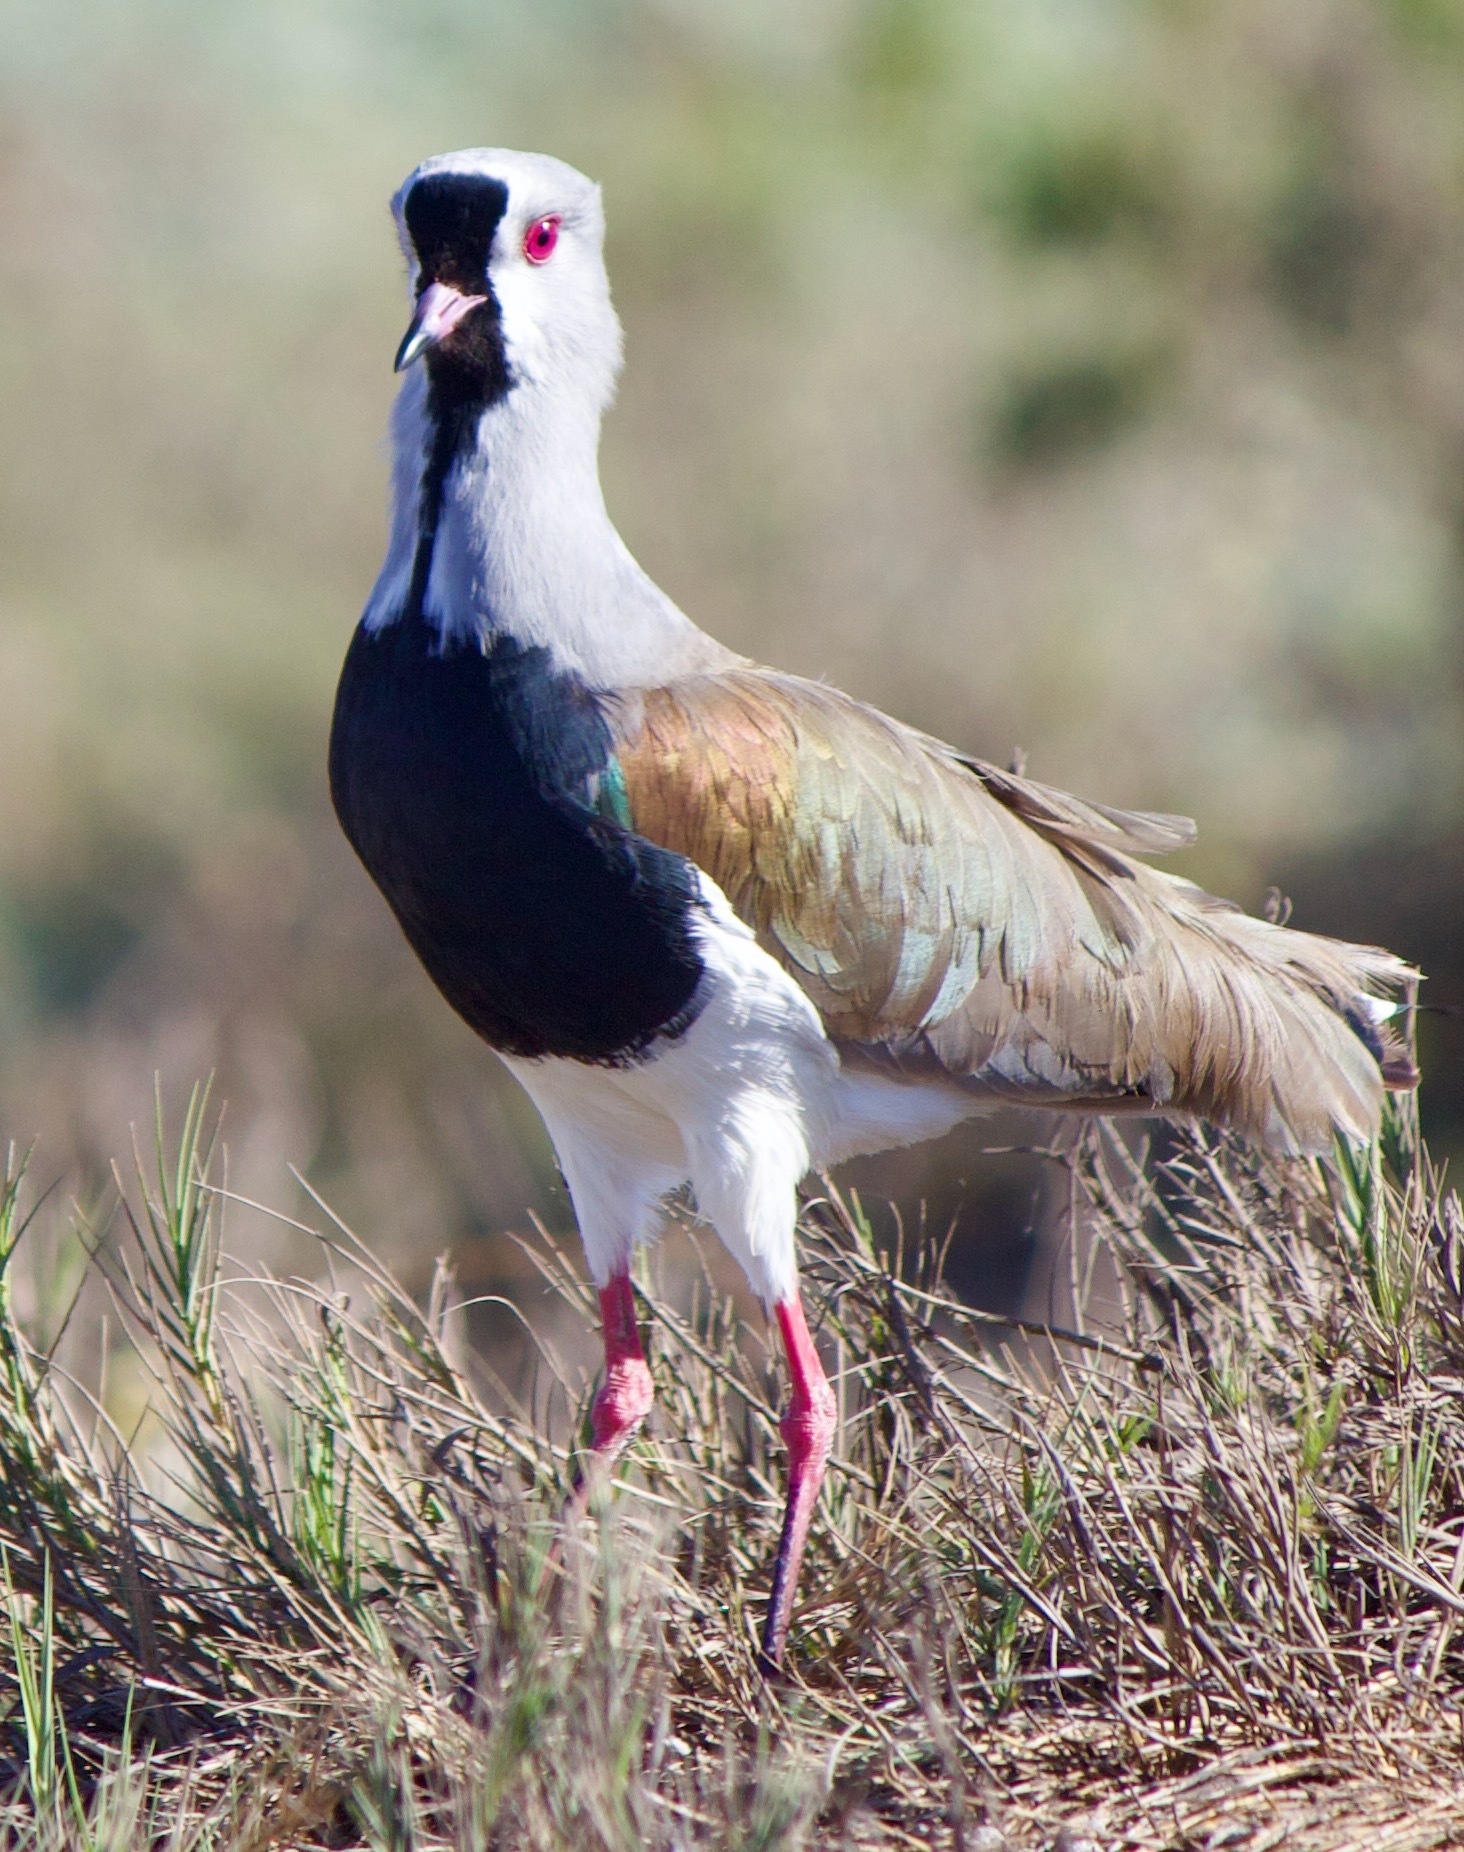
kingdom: Animalia
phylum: Chordata
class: Aves
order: Charadriiformes
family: Charadriidae
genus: Vanellus
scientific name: Vanellus chilensis
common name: Southern lapwing
